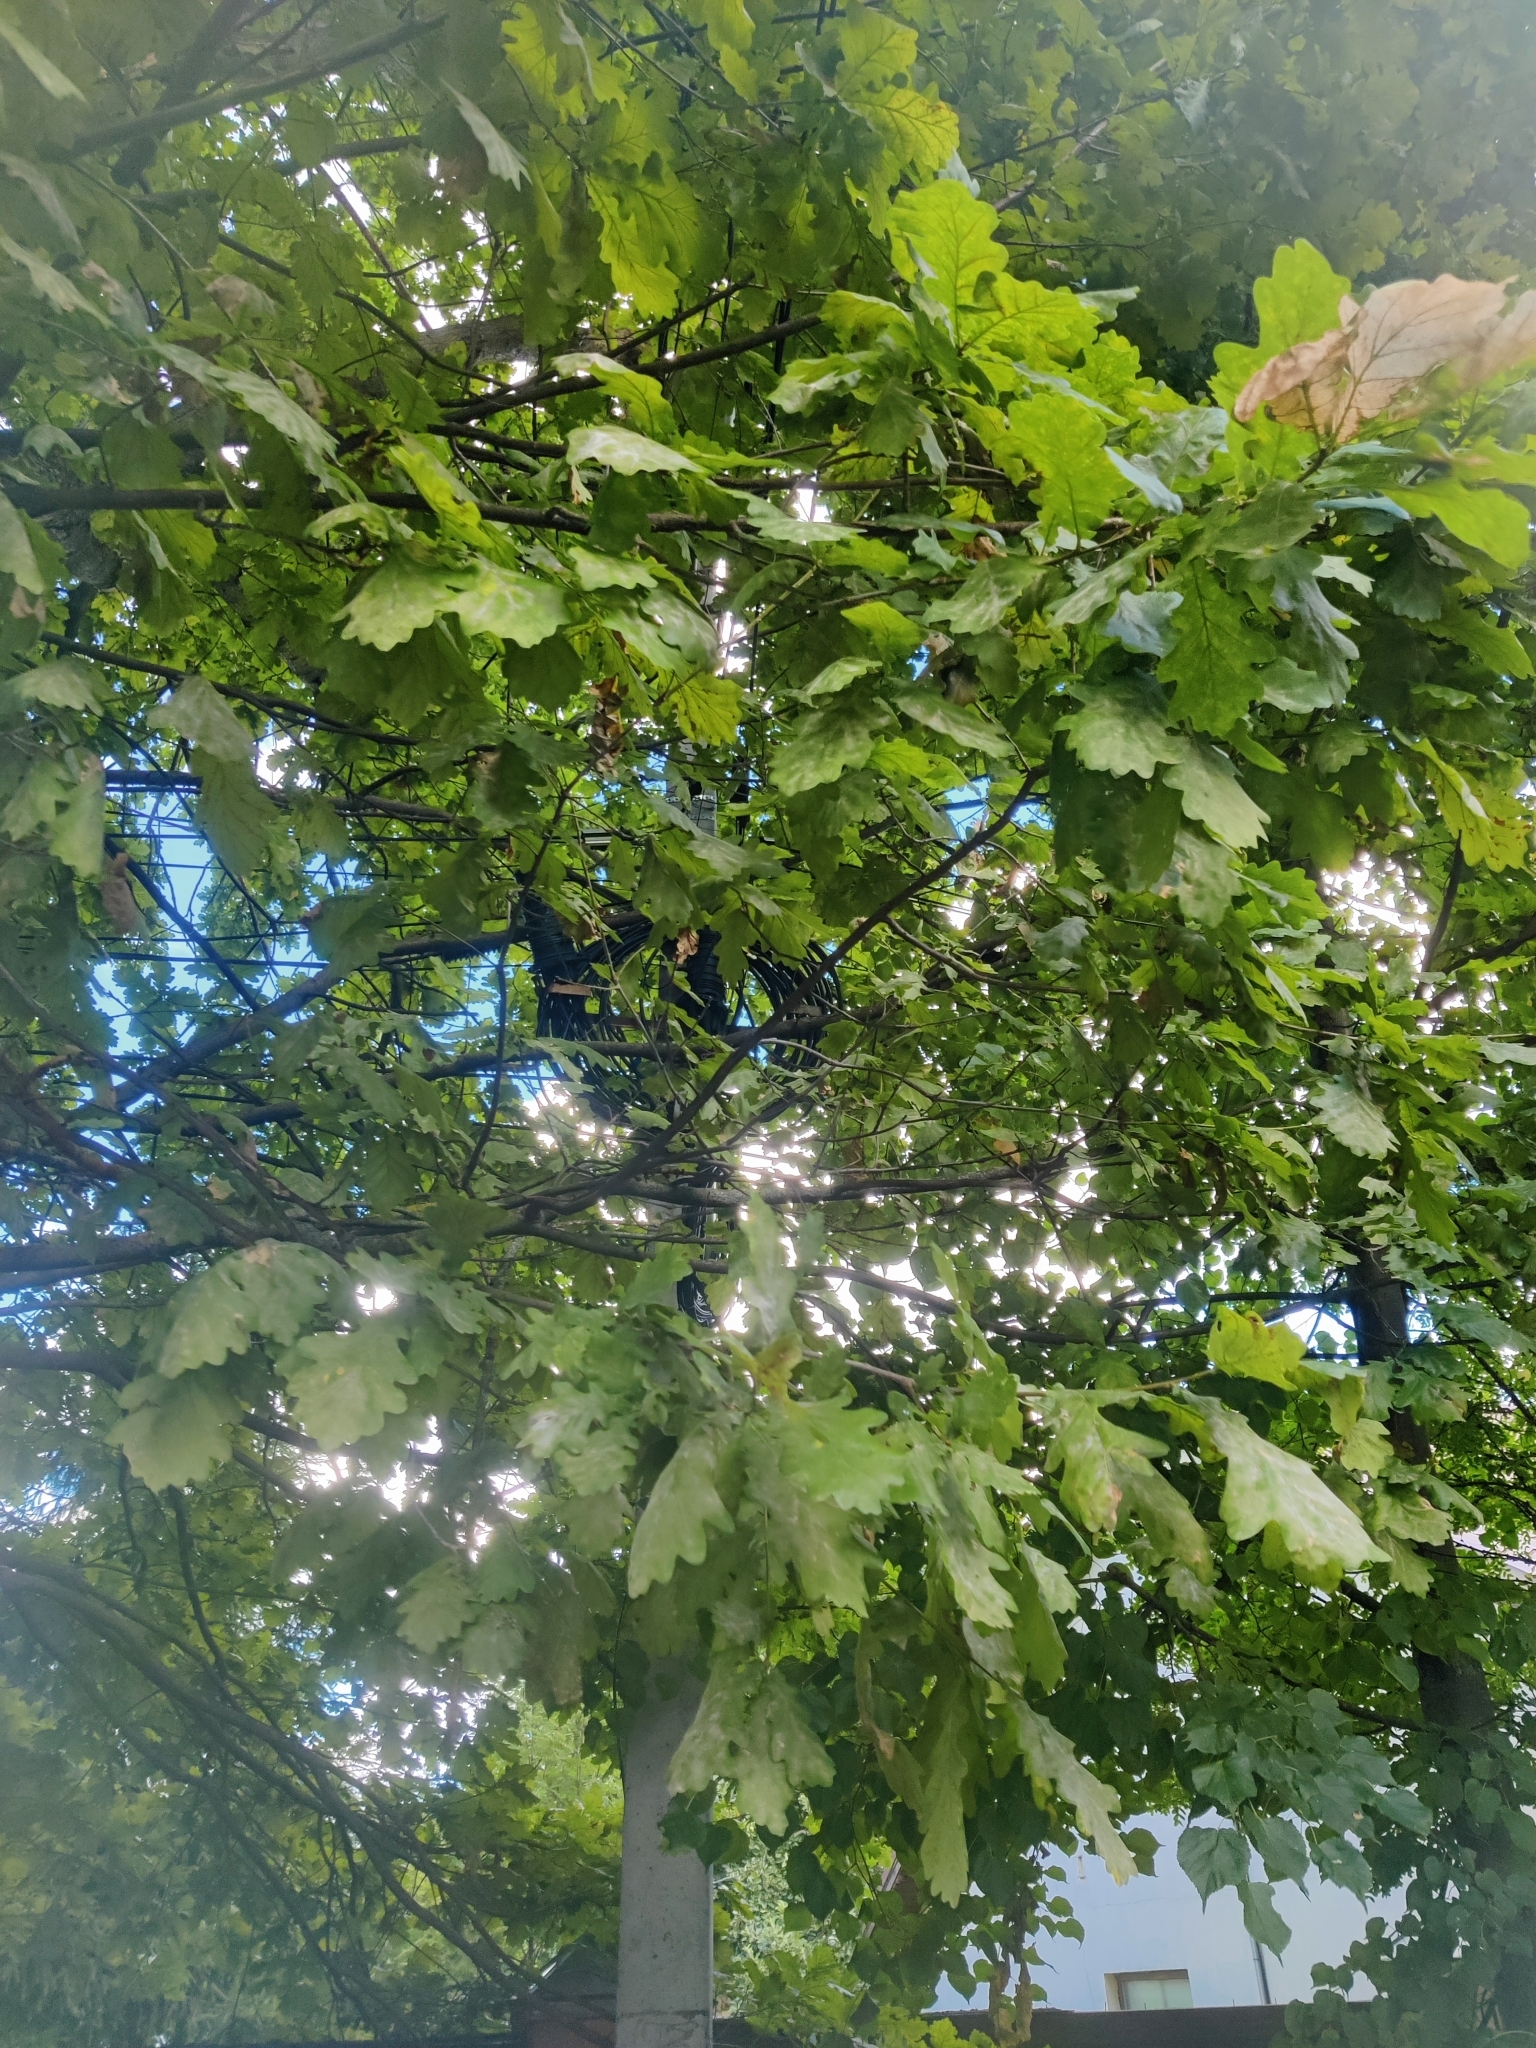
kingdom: Plantae
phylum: Tracheophyta
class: Magnoliopsida
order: Fagales
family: Fagaceae
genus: Quercus
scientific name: Quercus robur
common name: Pedunculate oak
